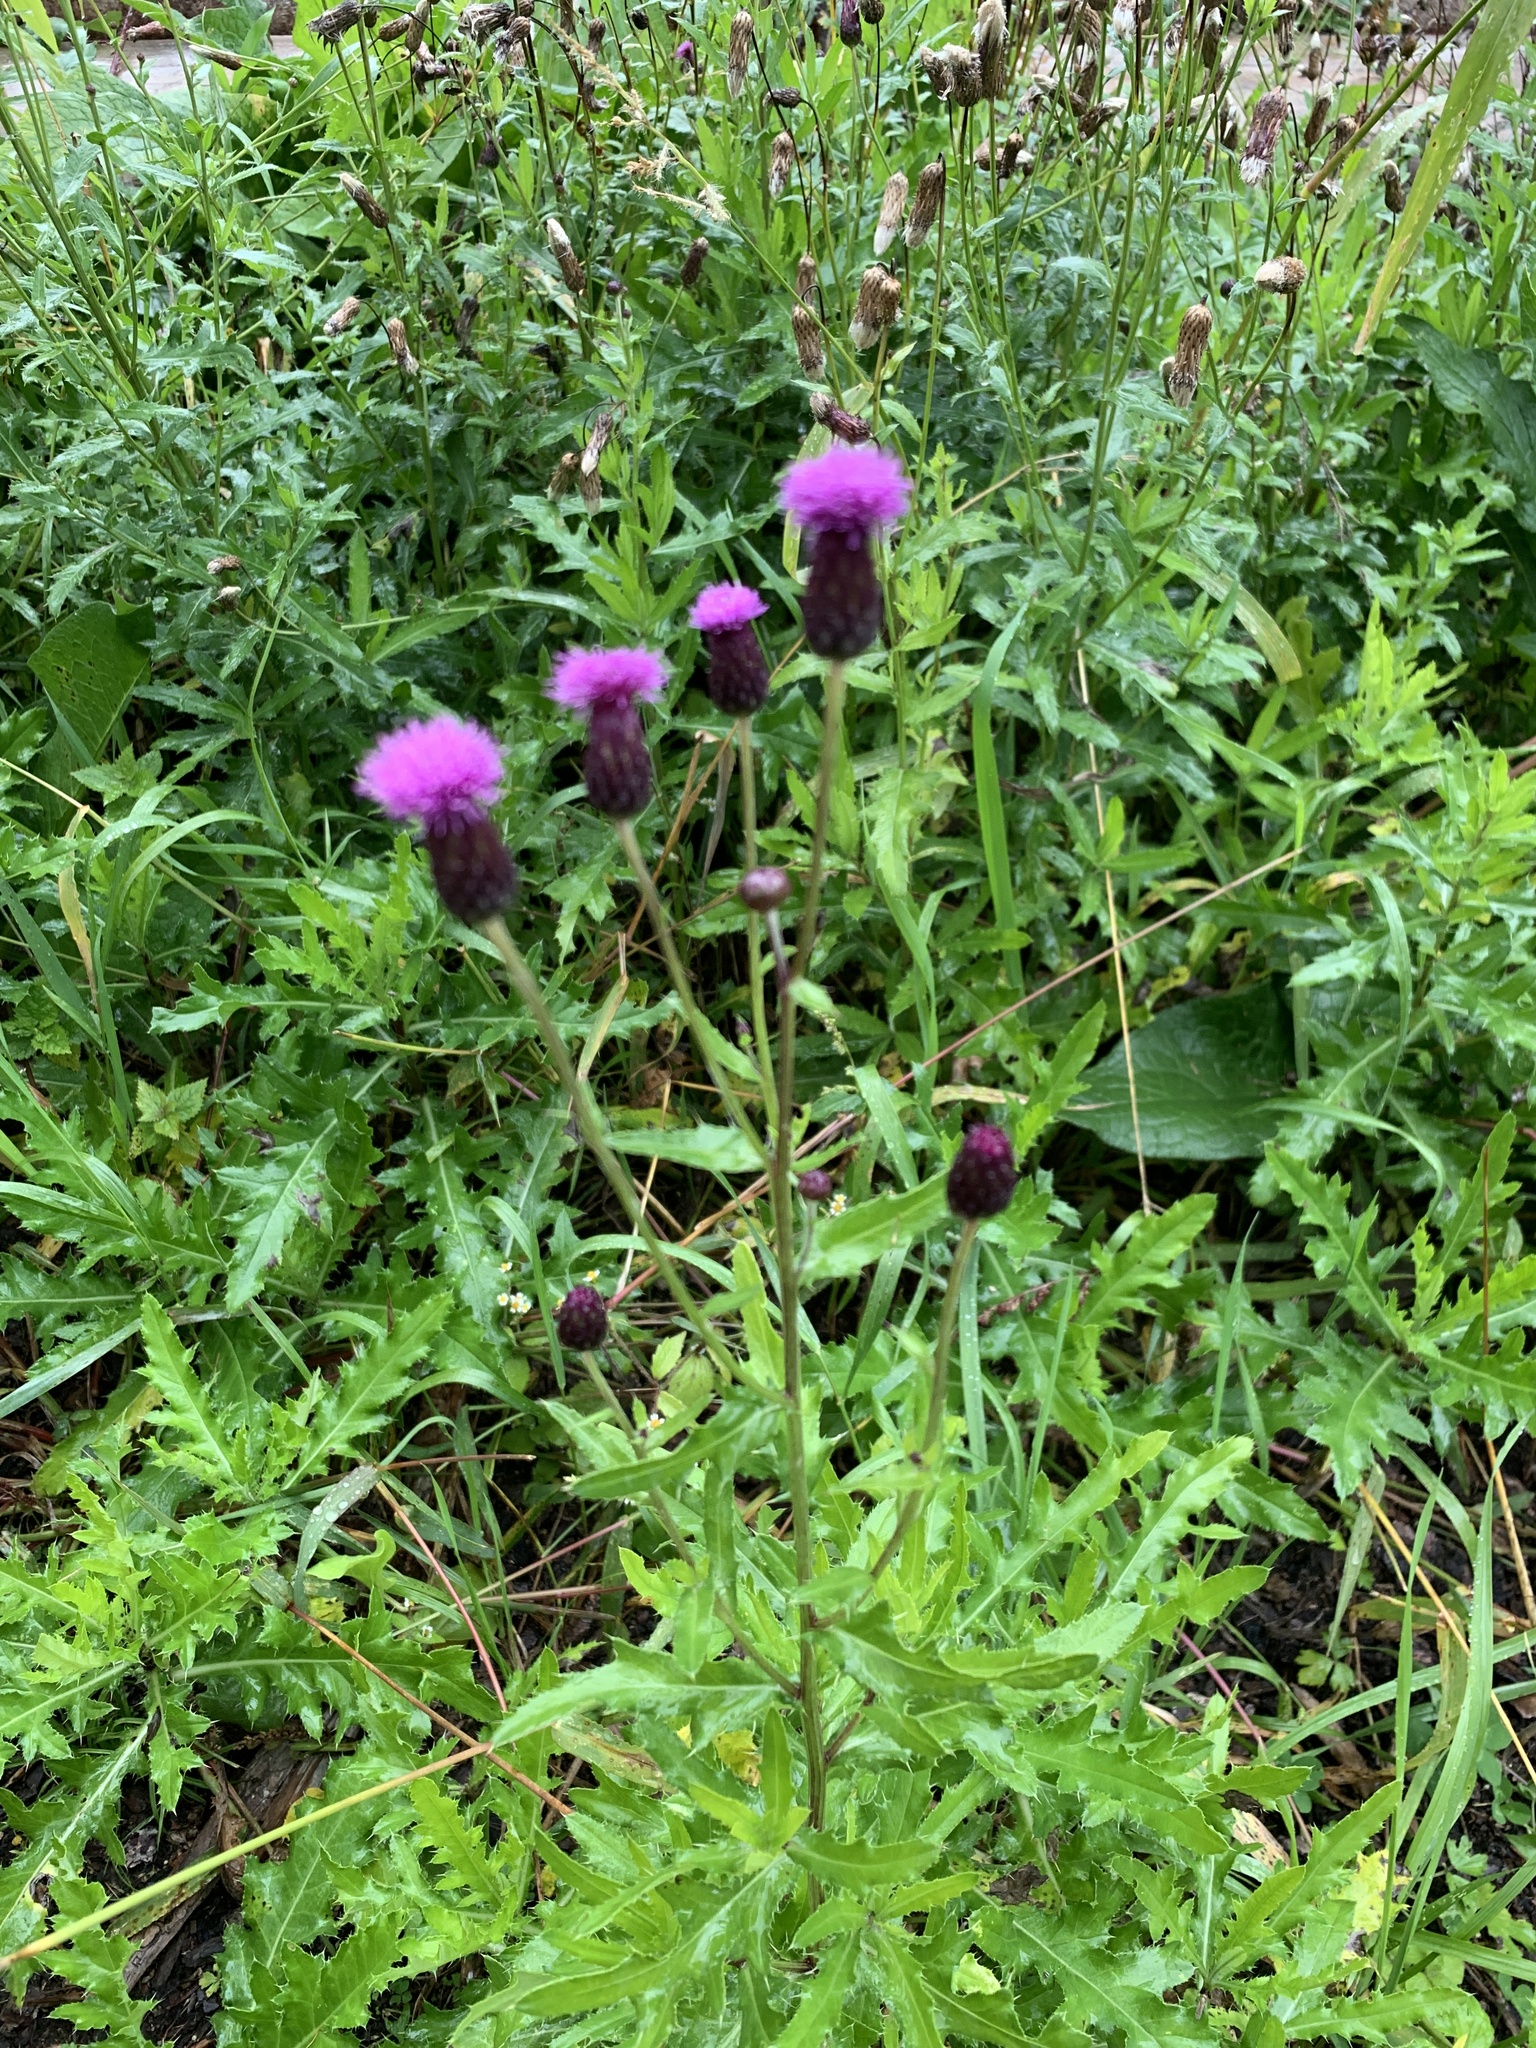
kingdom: Plantae
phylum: Tracheophyta
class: Magnoliopsida
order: Asterales
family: Asteraceae
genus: Cirsium
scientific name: Cirsium arvense
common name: Creeping thistle
